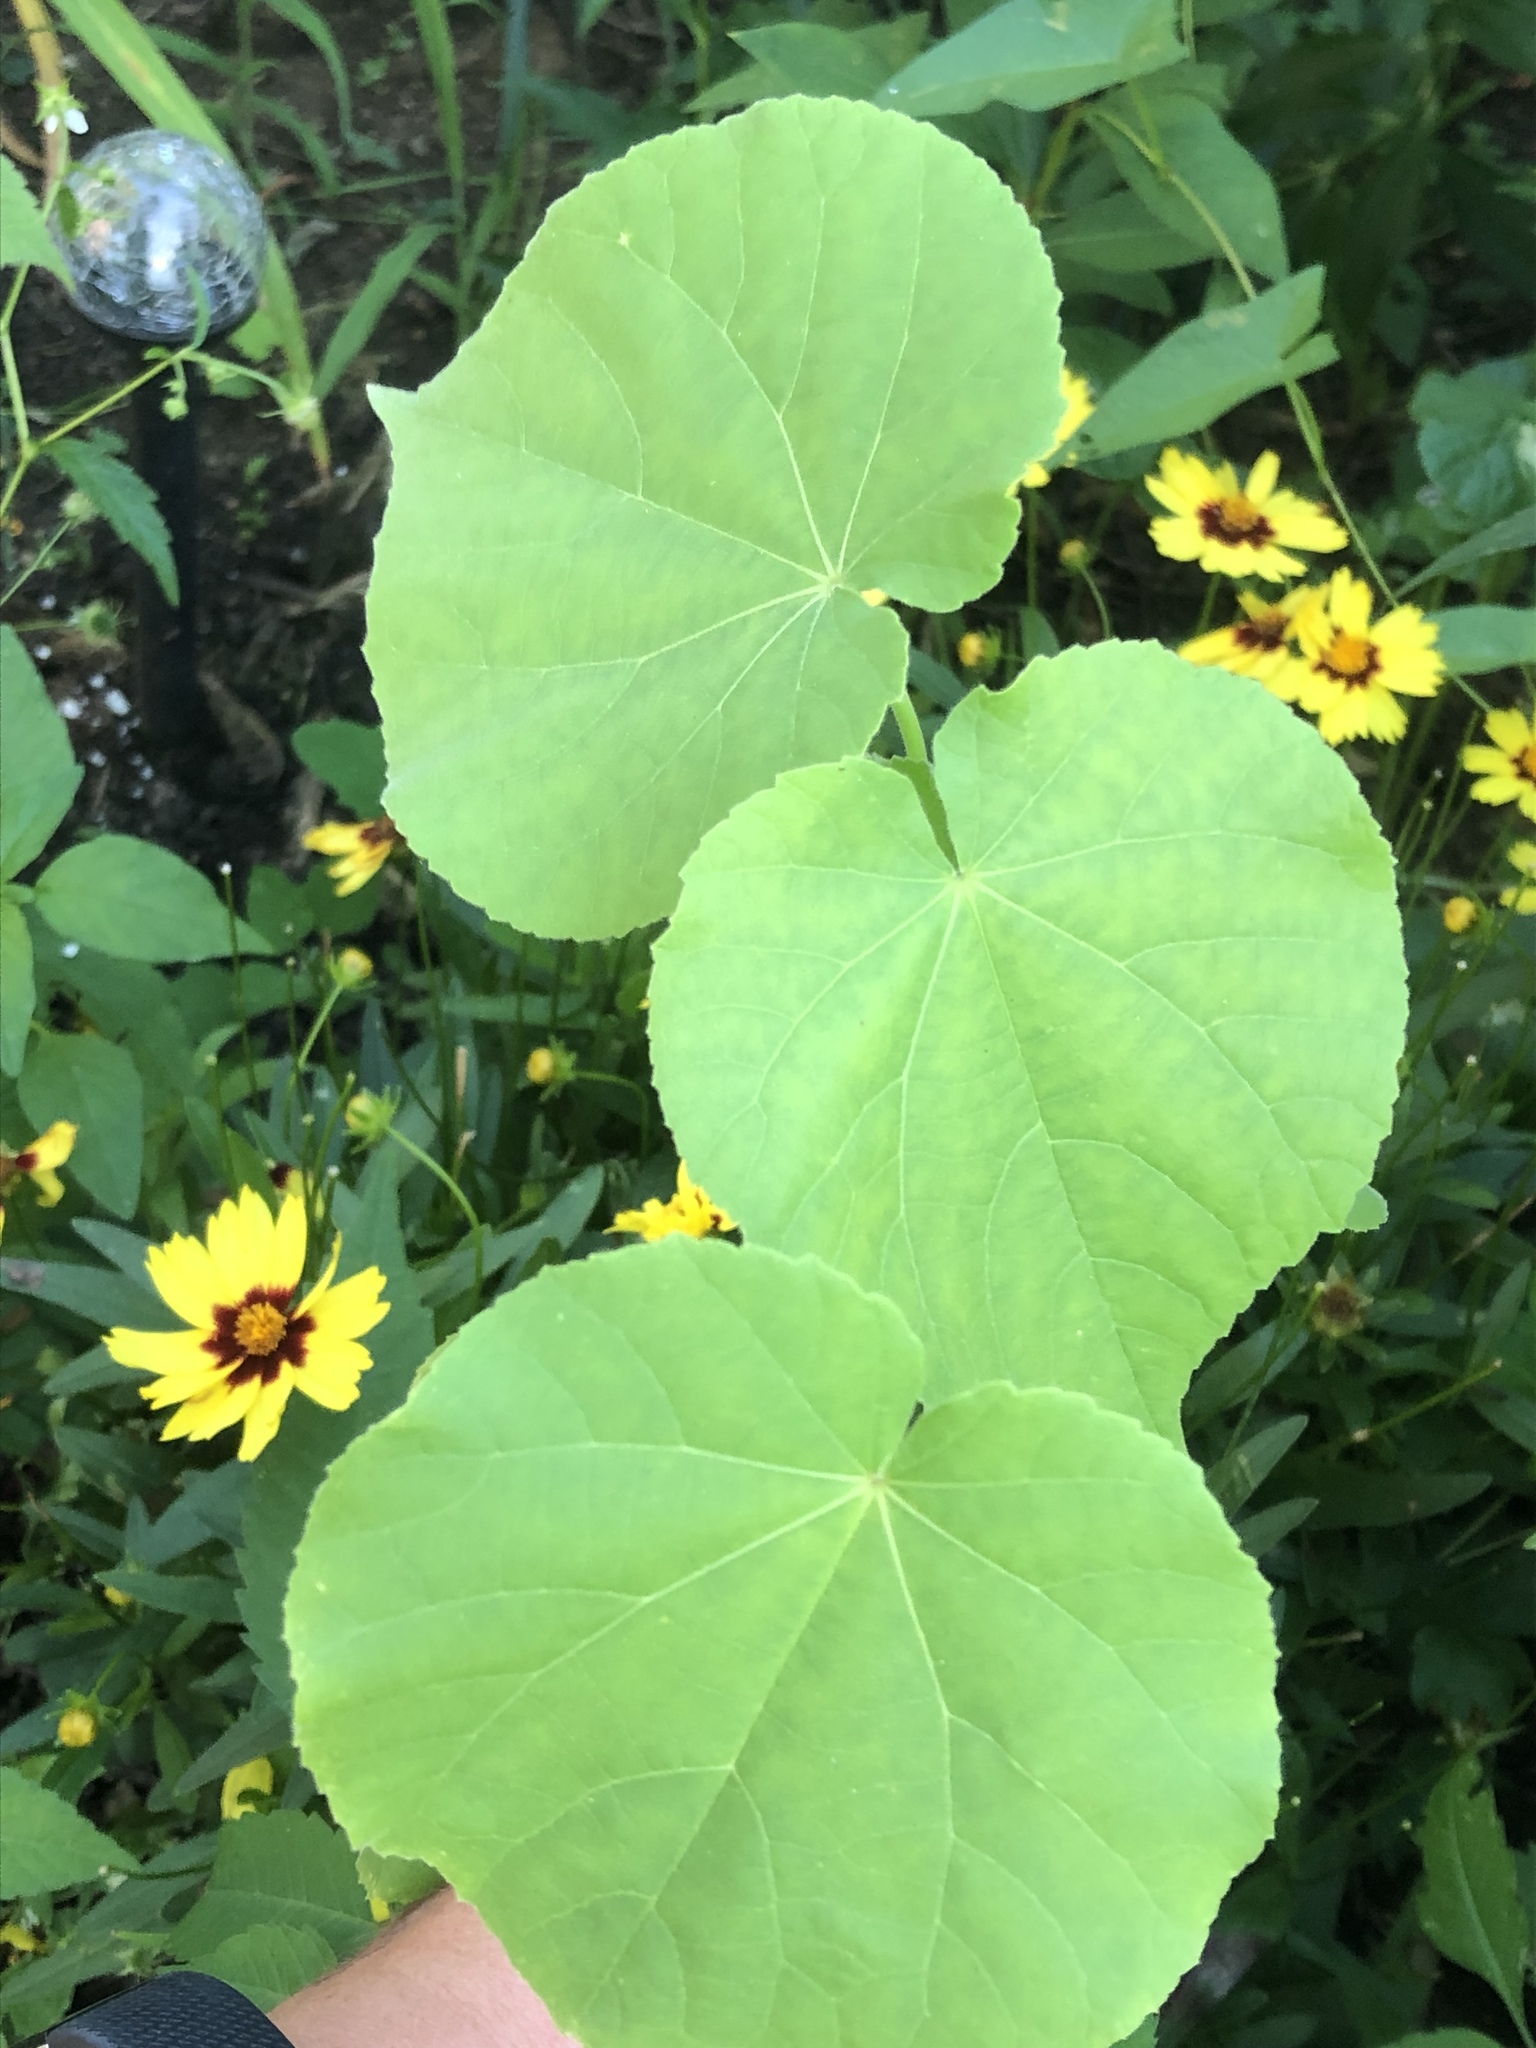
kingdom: Plantae
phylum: Tracheophyta
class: Magnoliopsida
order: Malvales
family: Malvaceae
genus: Abutilon
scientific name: Abutilon theophrasti
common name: Velvetleaf
